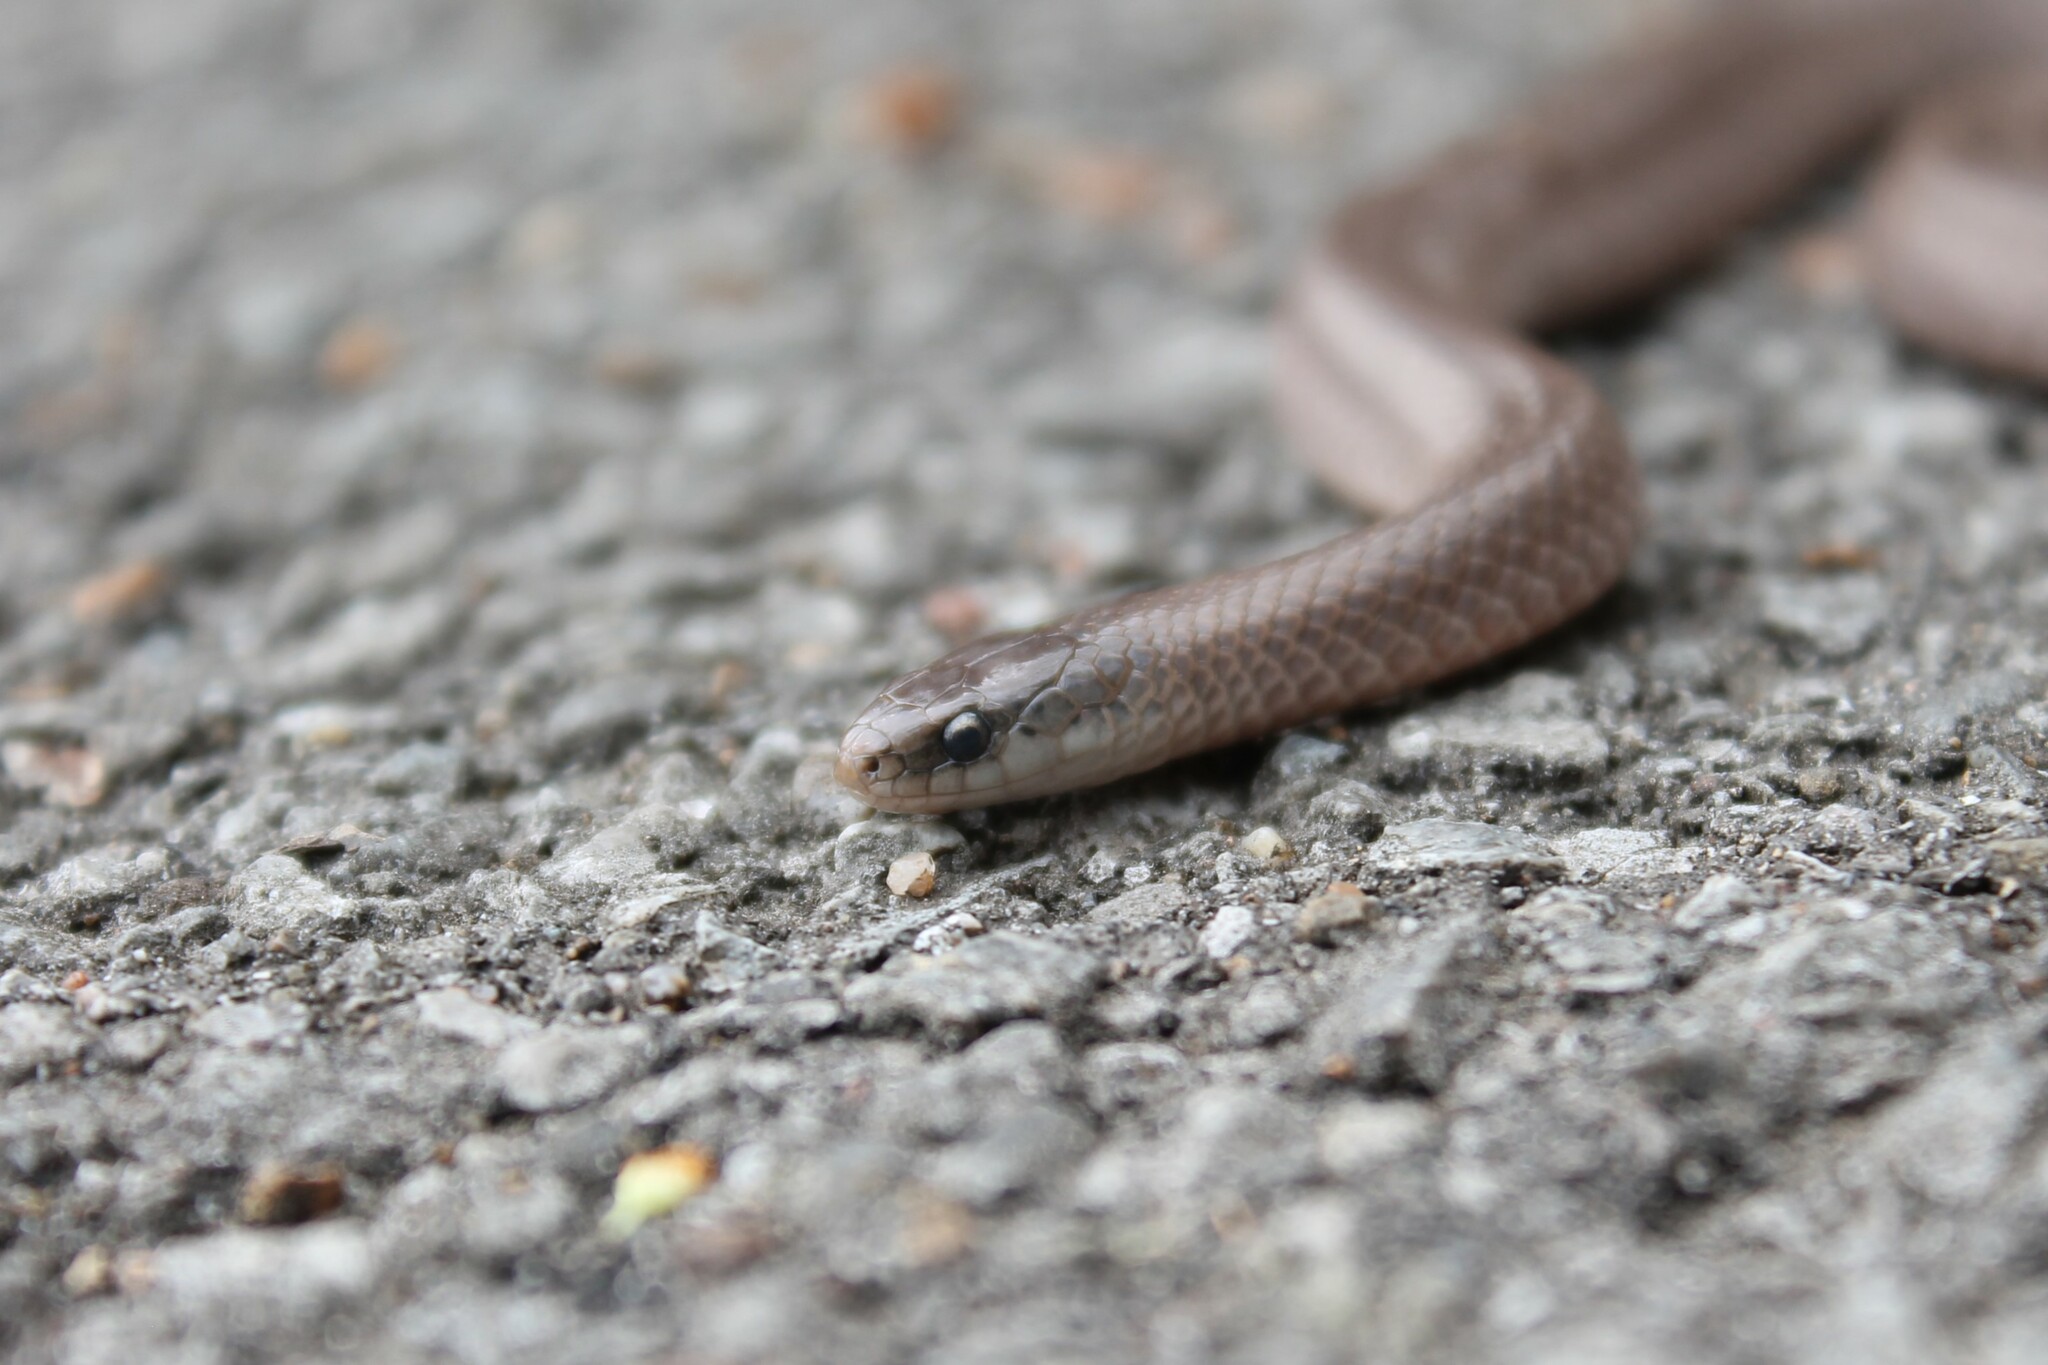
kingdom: Animalia
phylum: Chordata
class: Squamata
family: Colubridae
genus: Virginia
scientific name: Virginia valeriae
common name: Smooth earth snake
